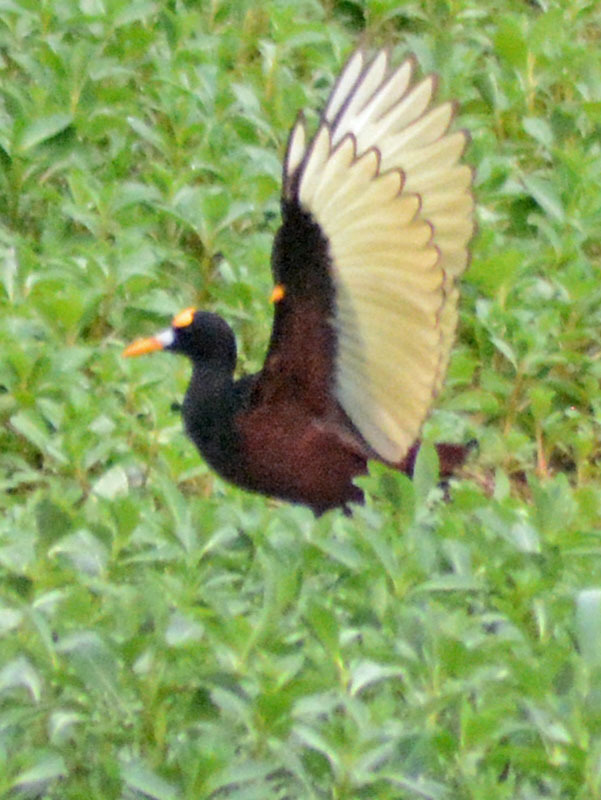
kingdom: Animalia
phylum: Chordata
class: Aves
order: Charadriiformes
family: Jacanidae
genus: Jacana
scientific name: Jacana spinosa
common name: Northern jacana
